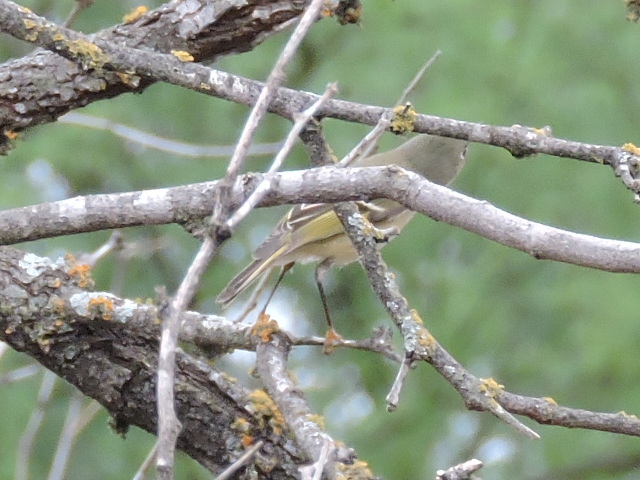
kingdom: Animalia
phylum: Chordata
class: Aves
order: Passeriformes
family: Regulidae
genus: Regulus
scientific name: Regulus calendula
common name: Ruby-crowned kinglet
